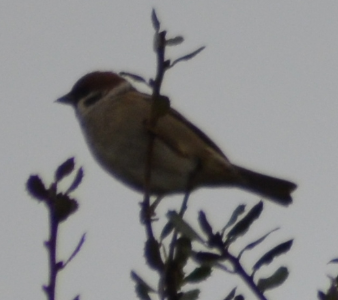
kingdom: Animalia
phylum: Chordata
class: Aves
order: Passeriformes
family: Passeridae
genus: Passer
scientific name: Passer montanus
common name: Eurasian tree sparrow
